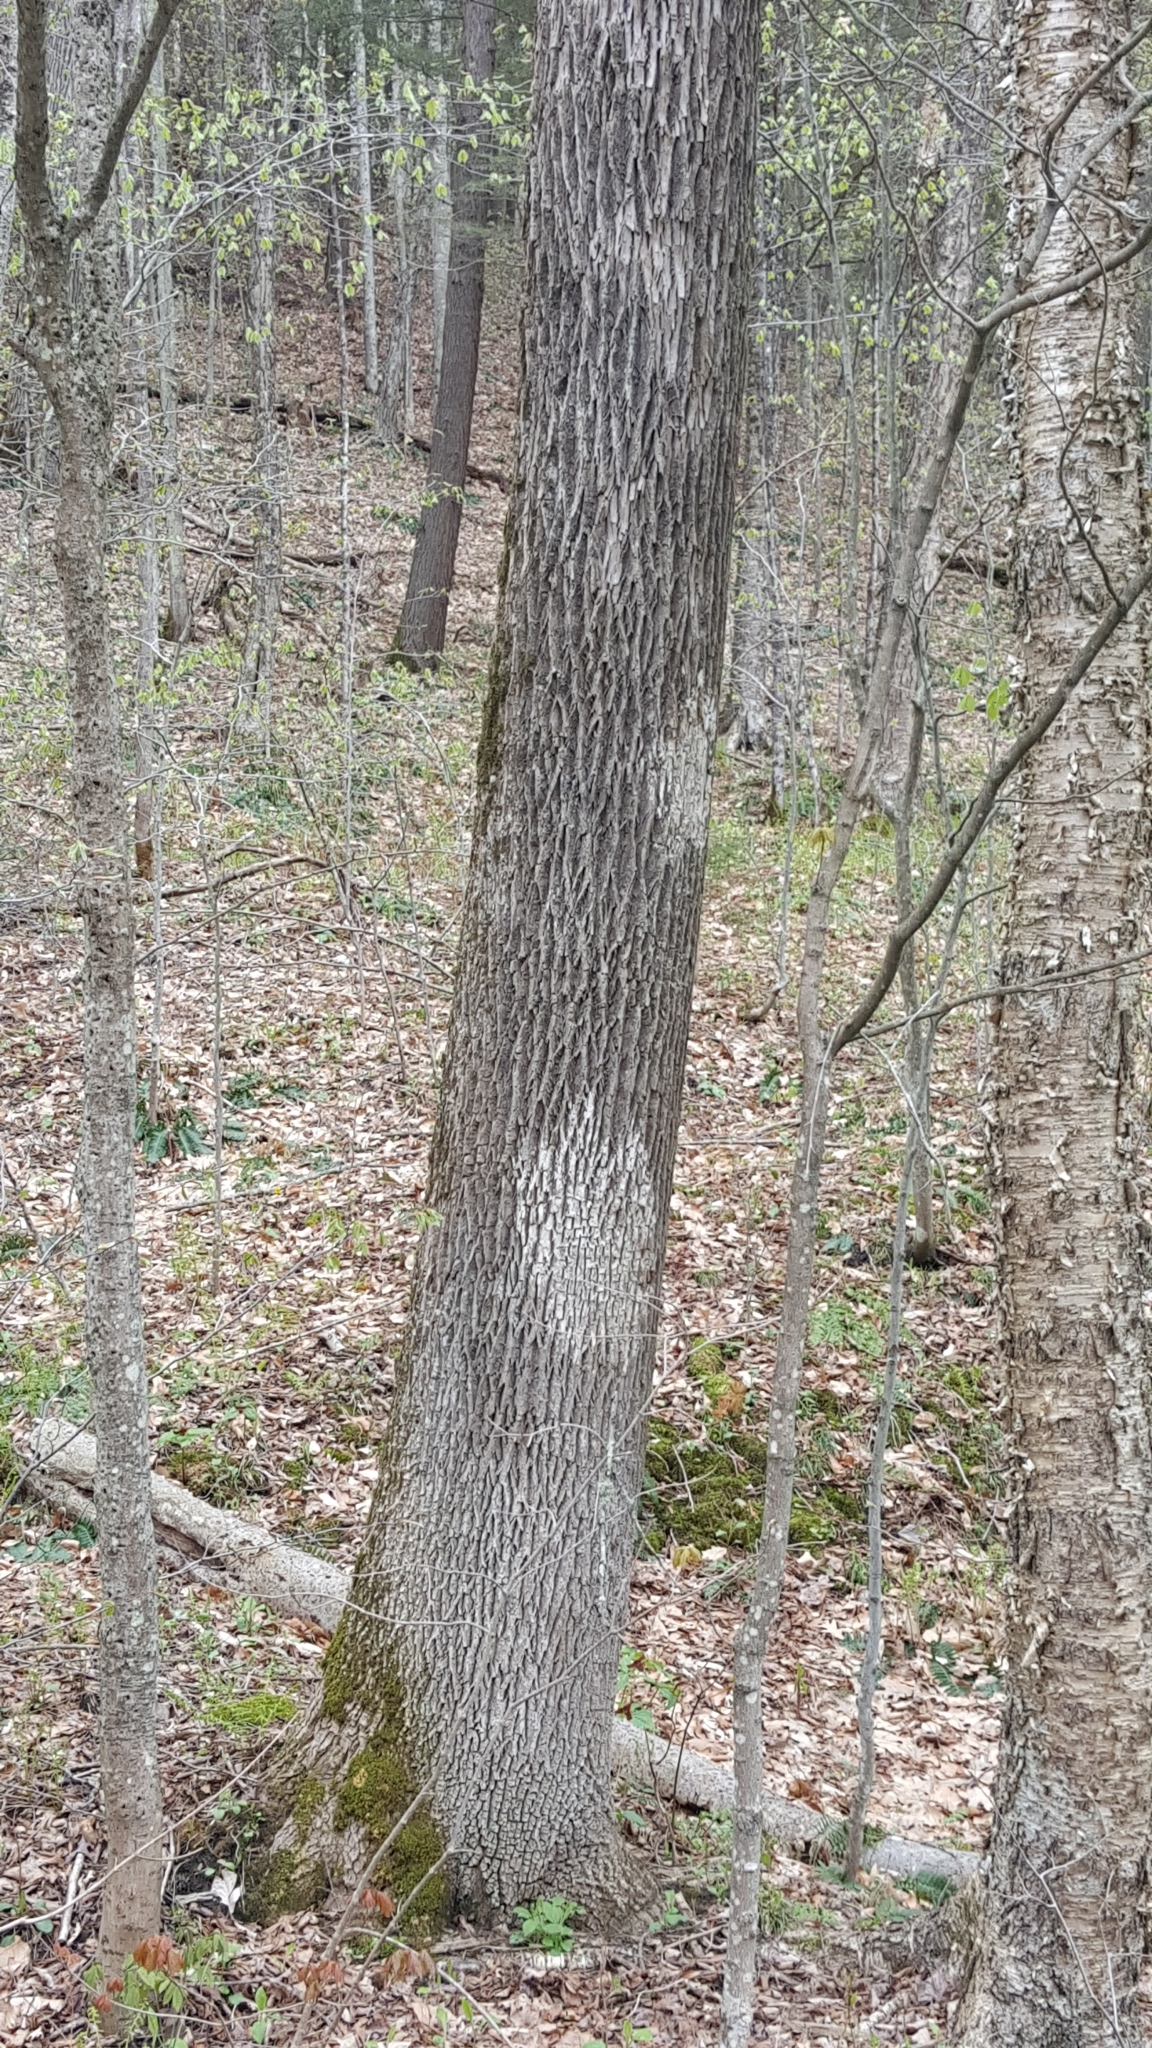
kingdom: Plantae
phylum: Tracheophyta
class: Magnoliopsida
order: Lamiales
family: Oleaceae
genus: Fraxinus
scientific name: Fraxinus americana
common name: White ash
